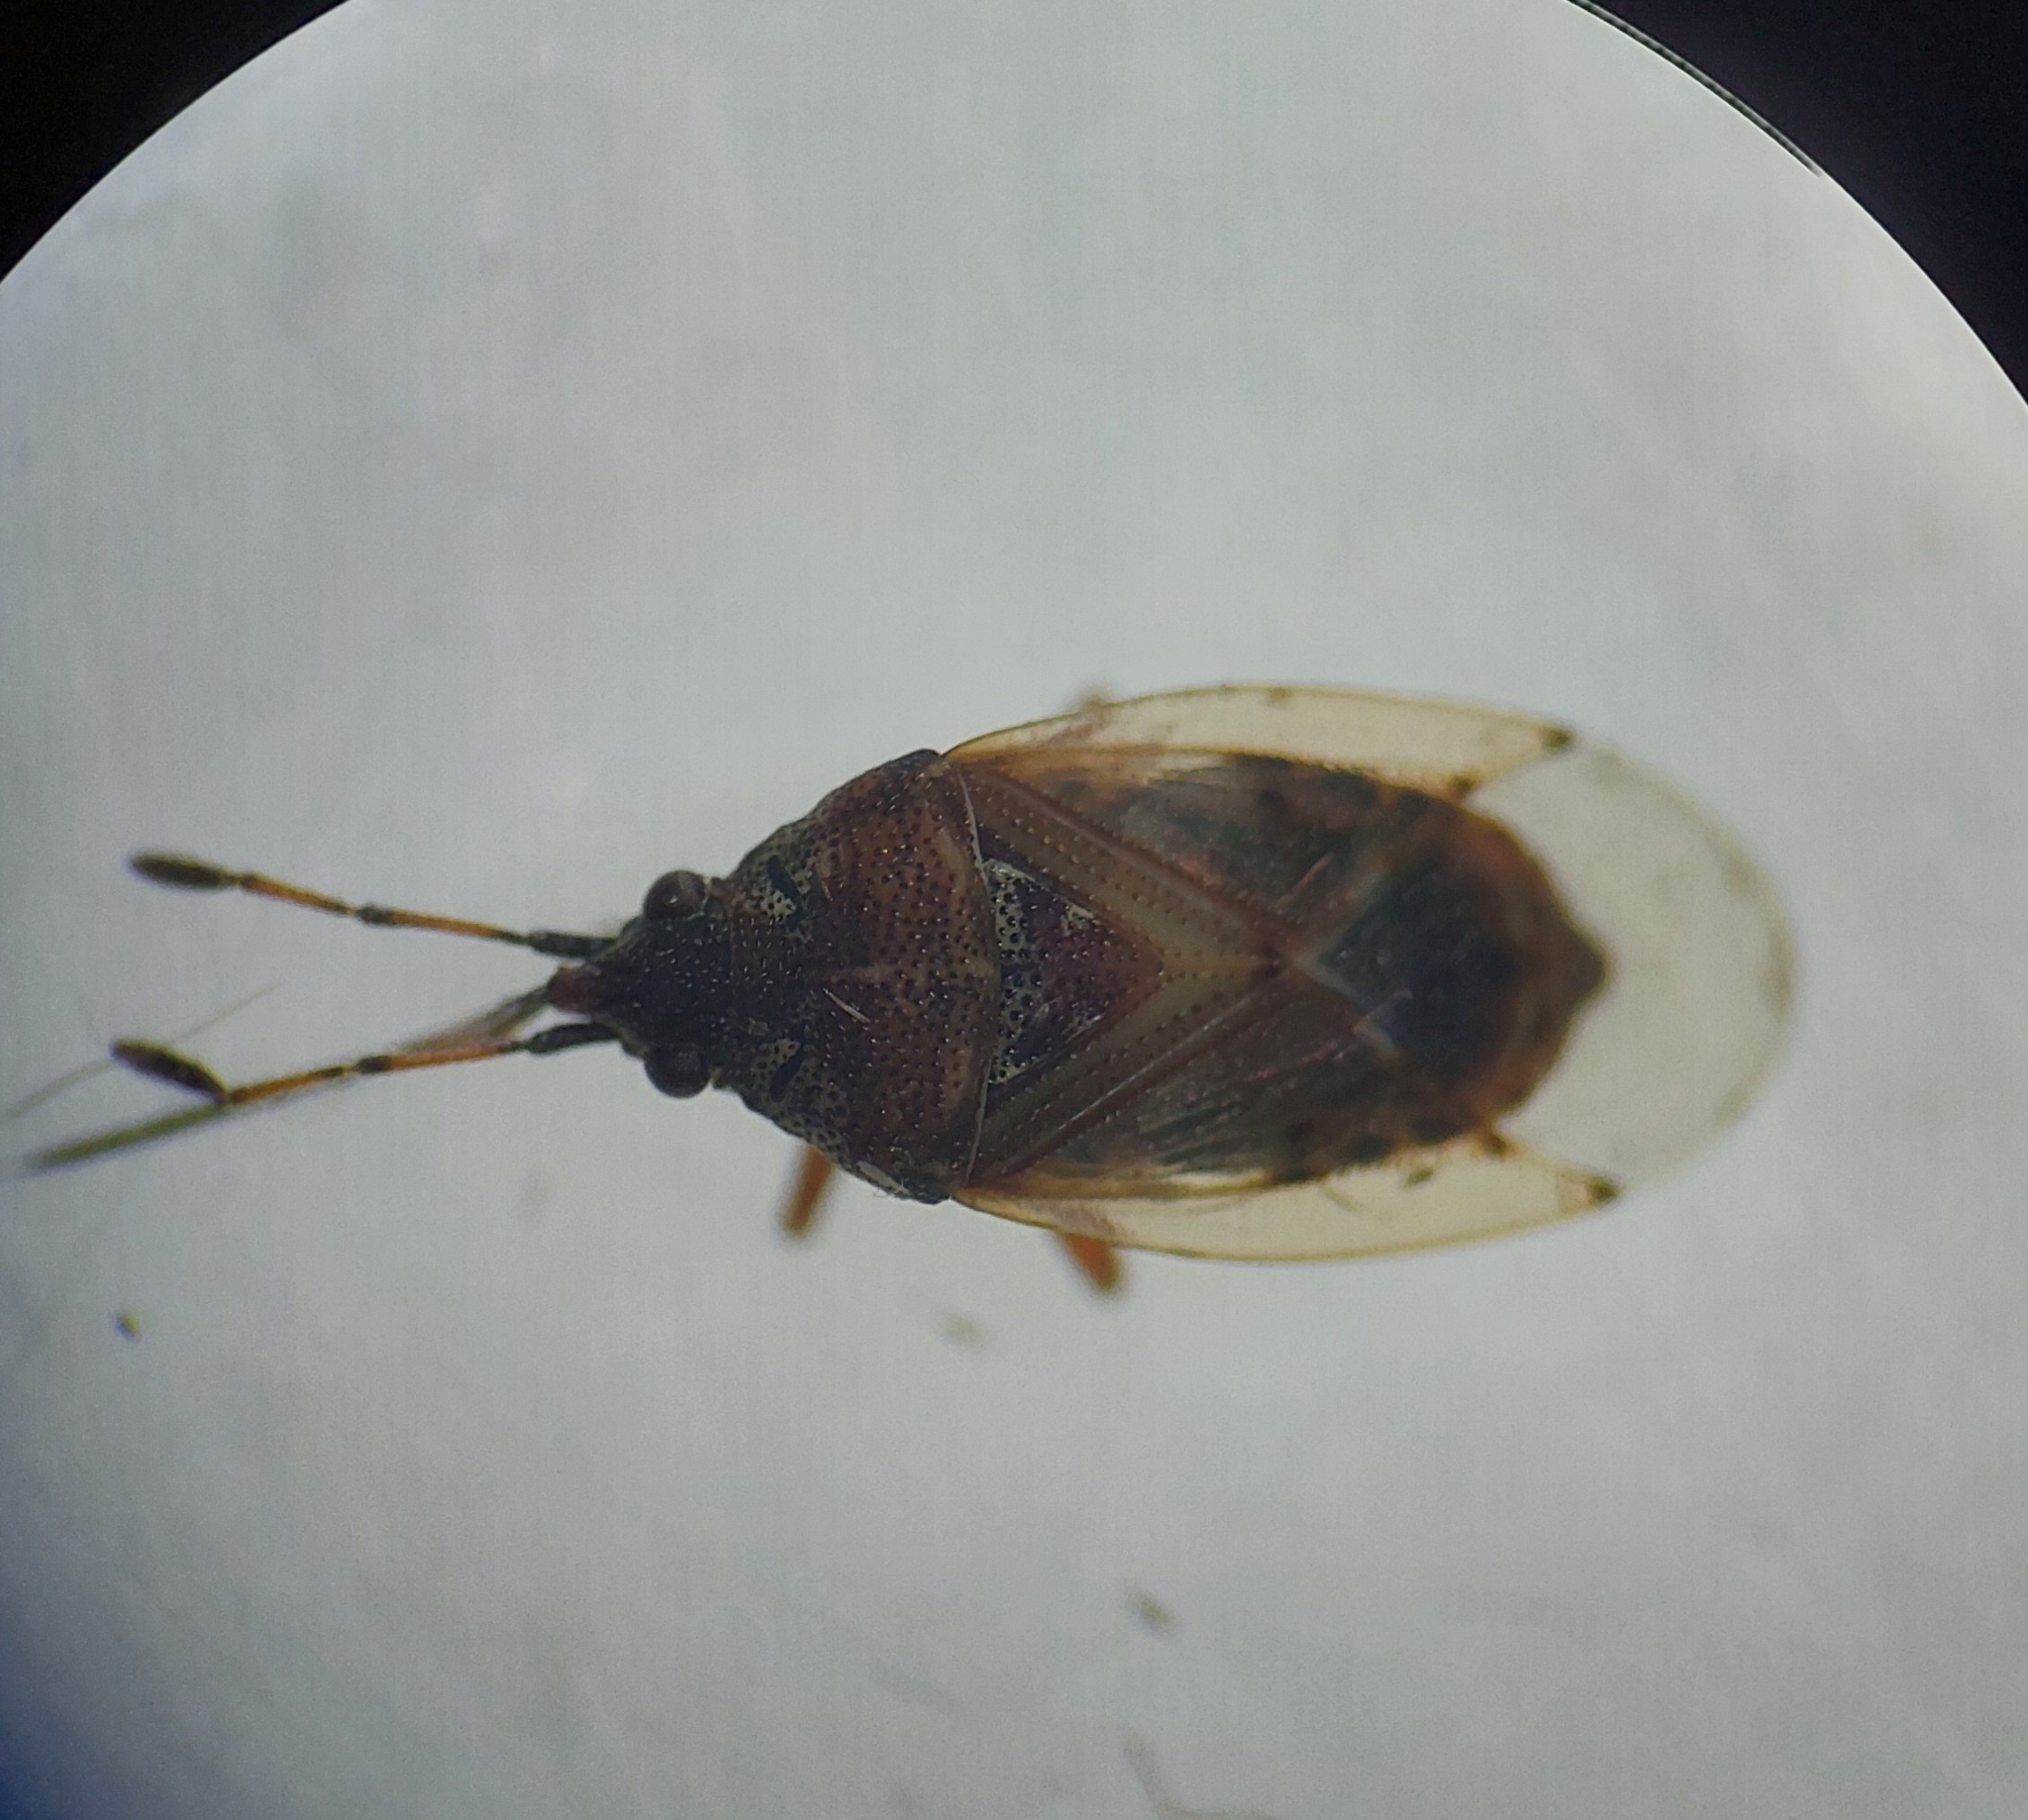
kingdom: Animalia
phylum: Arthropoda
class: Insecta
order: Hemiptera
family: Lygaeidae
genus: Kleidocerys
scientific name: Kleidocerys resedae
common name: Birch catkin bug
